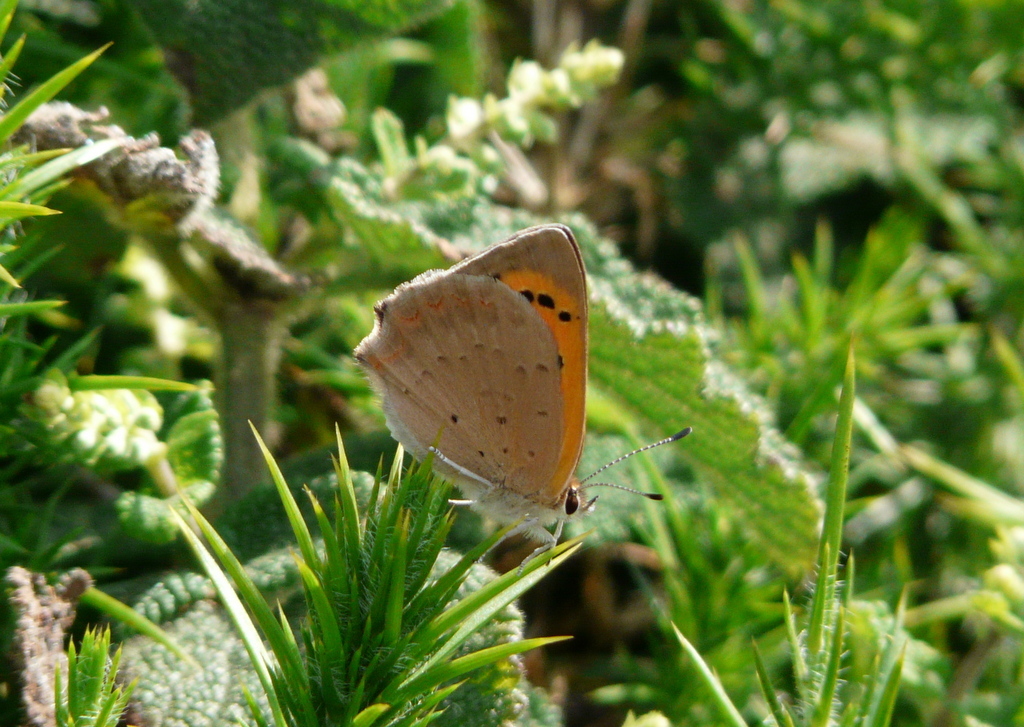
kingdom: Animalia
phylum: Arthropoda
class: Insecta
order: Lepidoptera
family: Lycaenidae
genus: Lycaena
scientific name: Lycaena phlaeas
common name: Small copper
